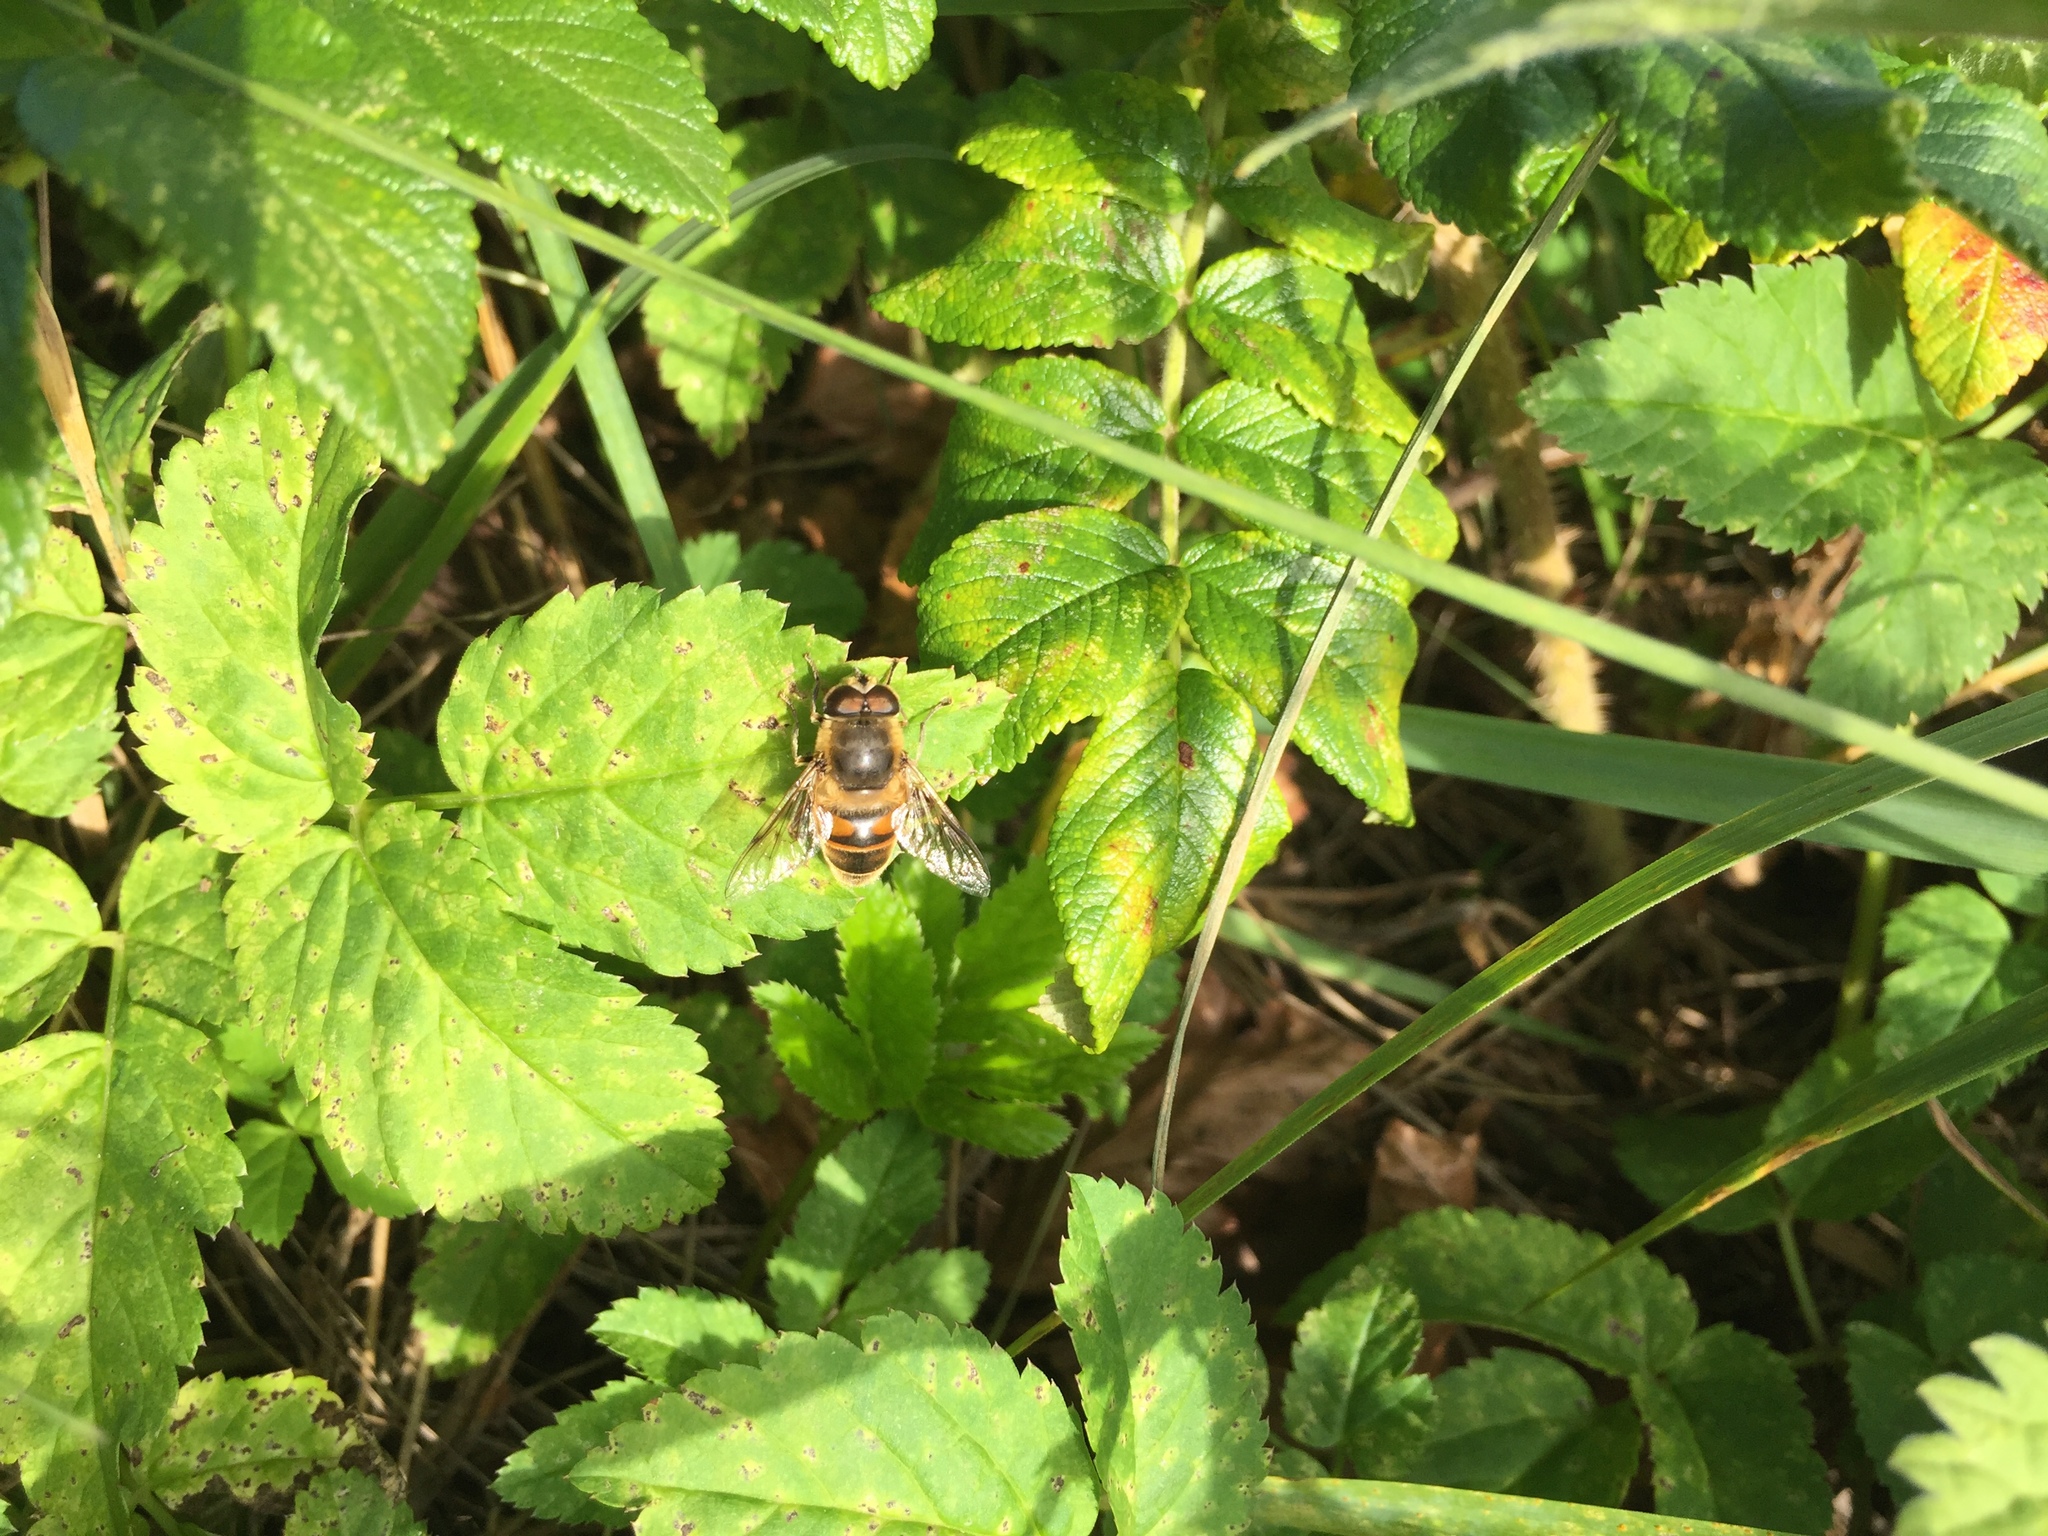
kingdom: Animalia
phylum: Arthropoda
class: Insecta
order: Diptera
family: Syrphidae
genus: Eristalis
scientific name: Eristalis tenax
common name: Drone fly
